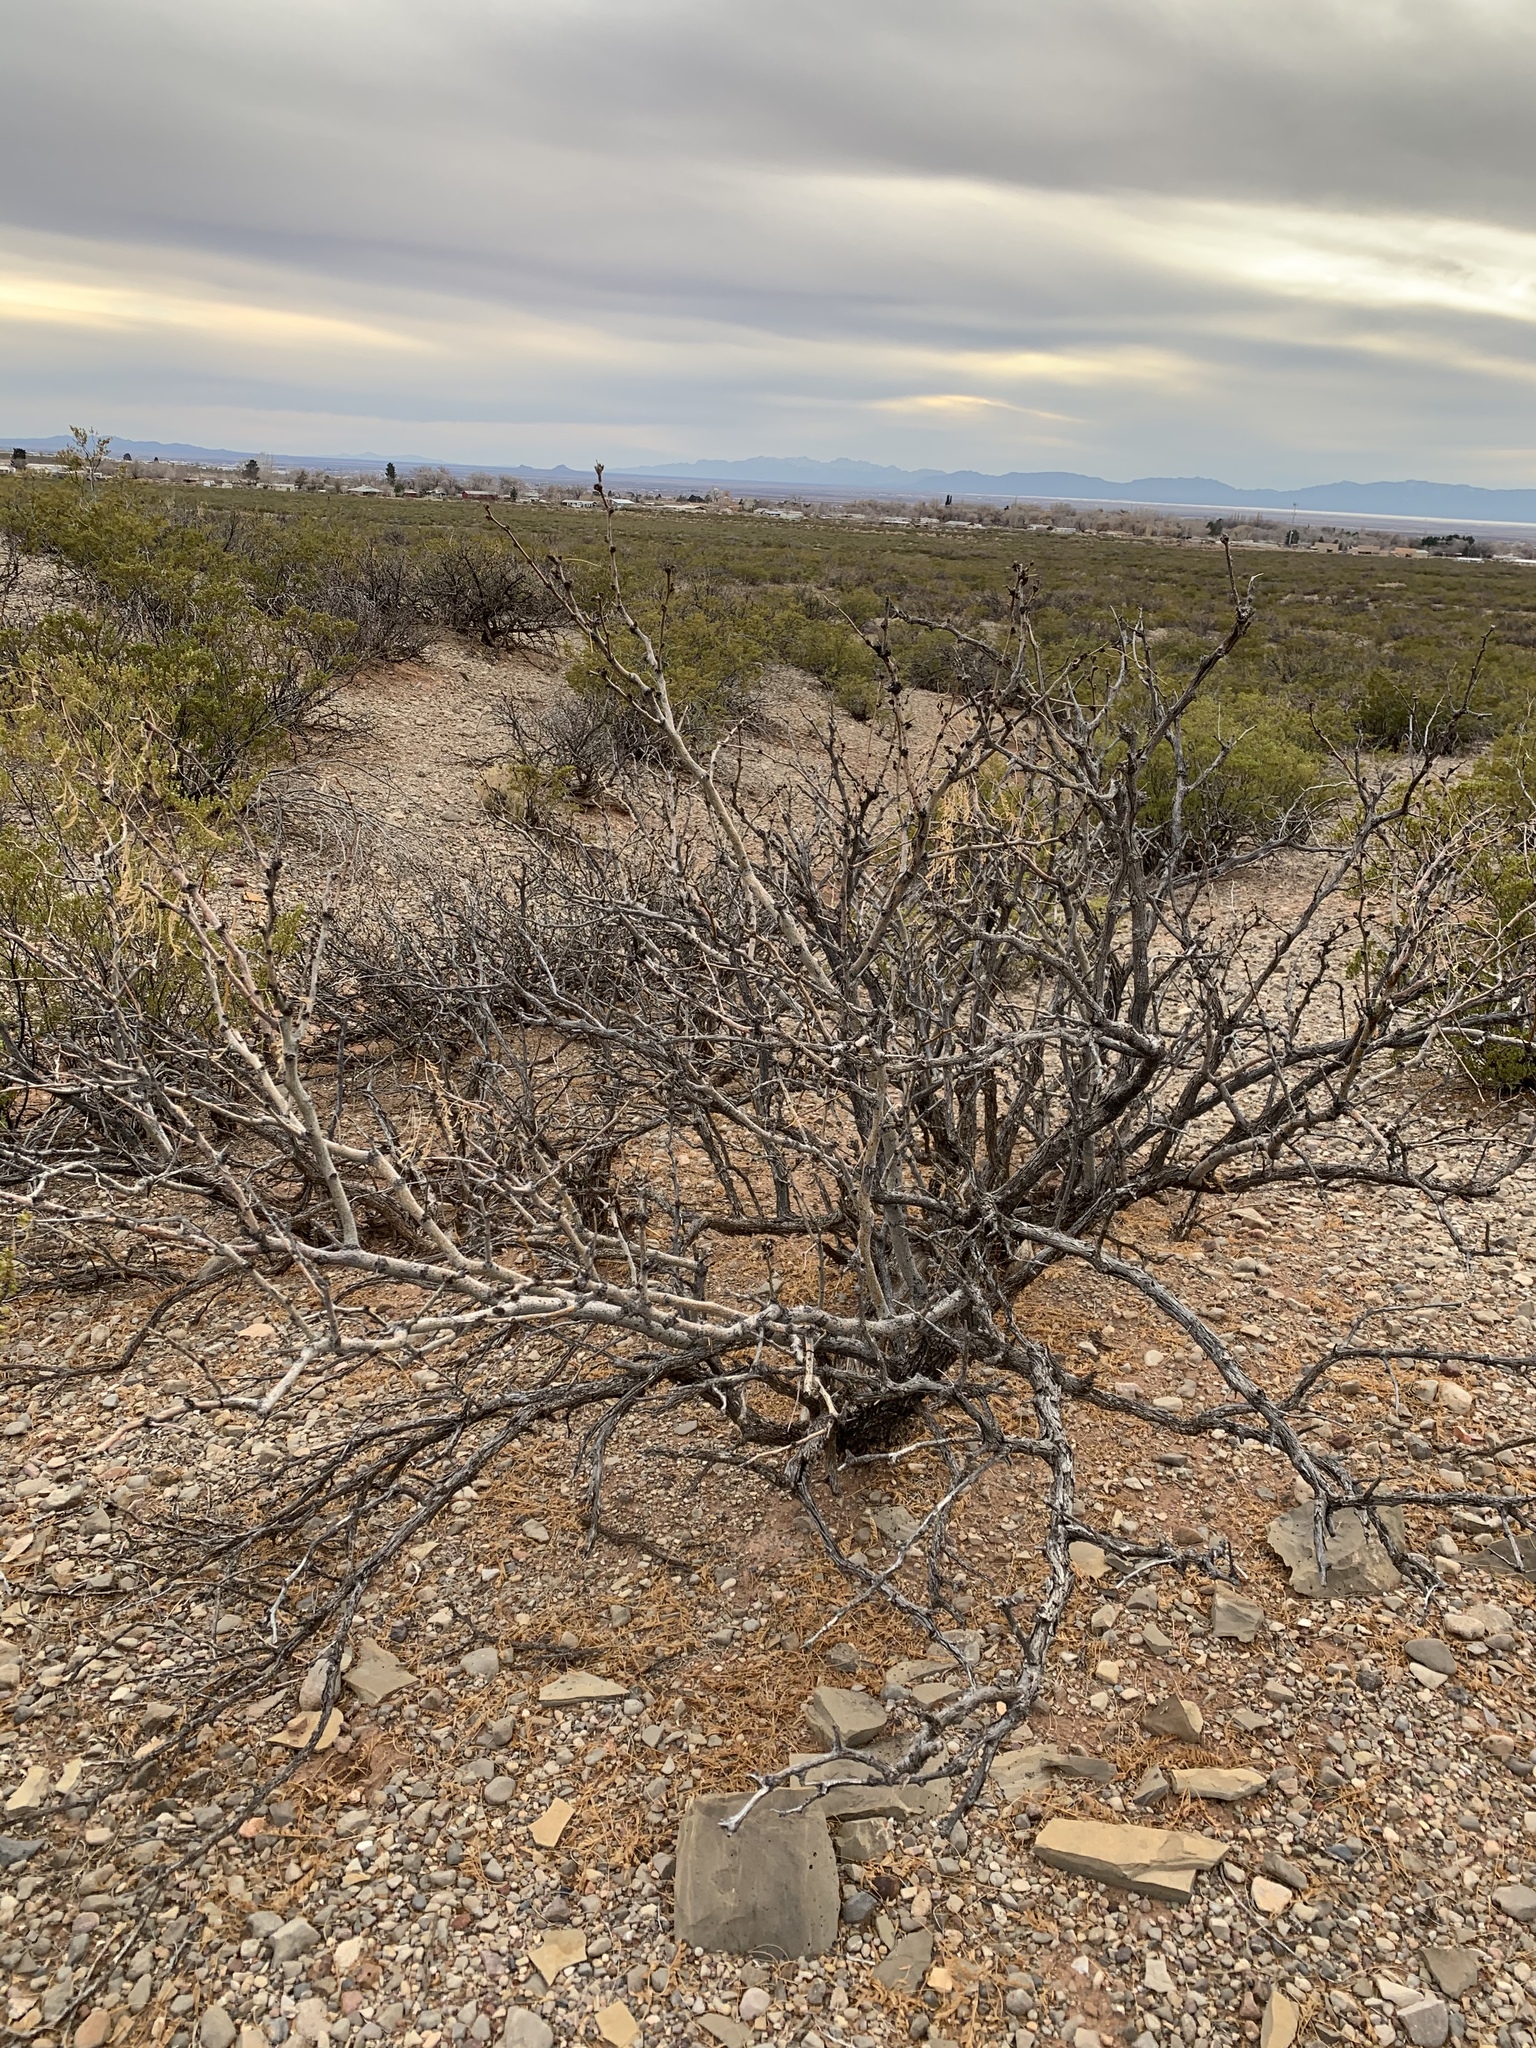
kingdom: Plantae
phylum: Tracheophyta
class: Magnoliopsida
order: Fabales
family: Fabaceae
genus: Prosopis
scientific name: Prosopis glandulosa
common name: Honey mesquite
